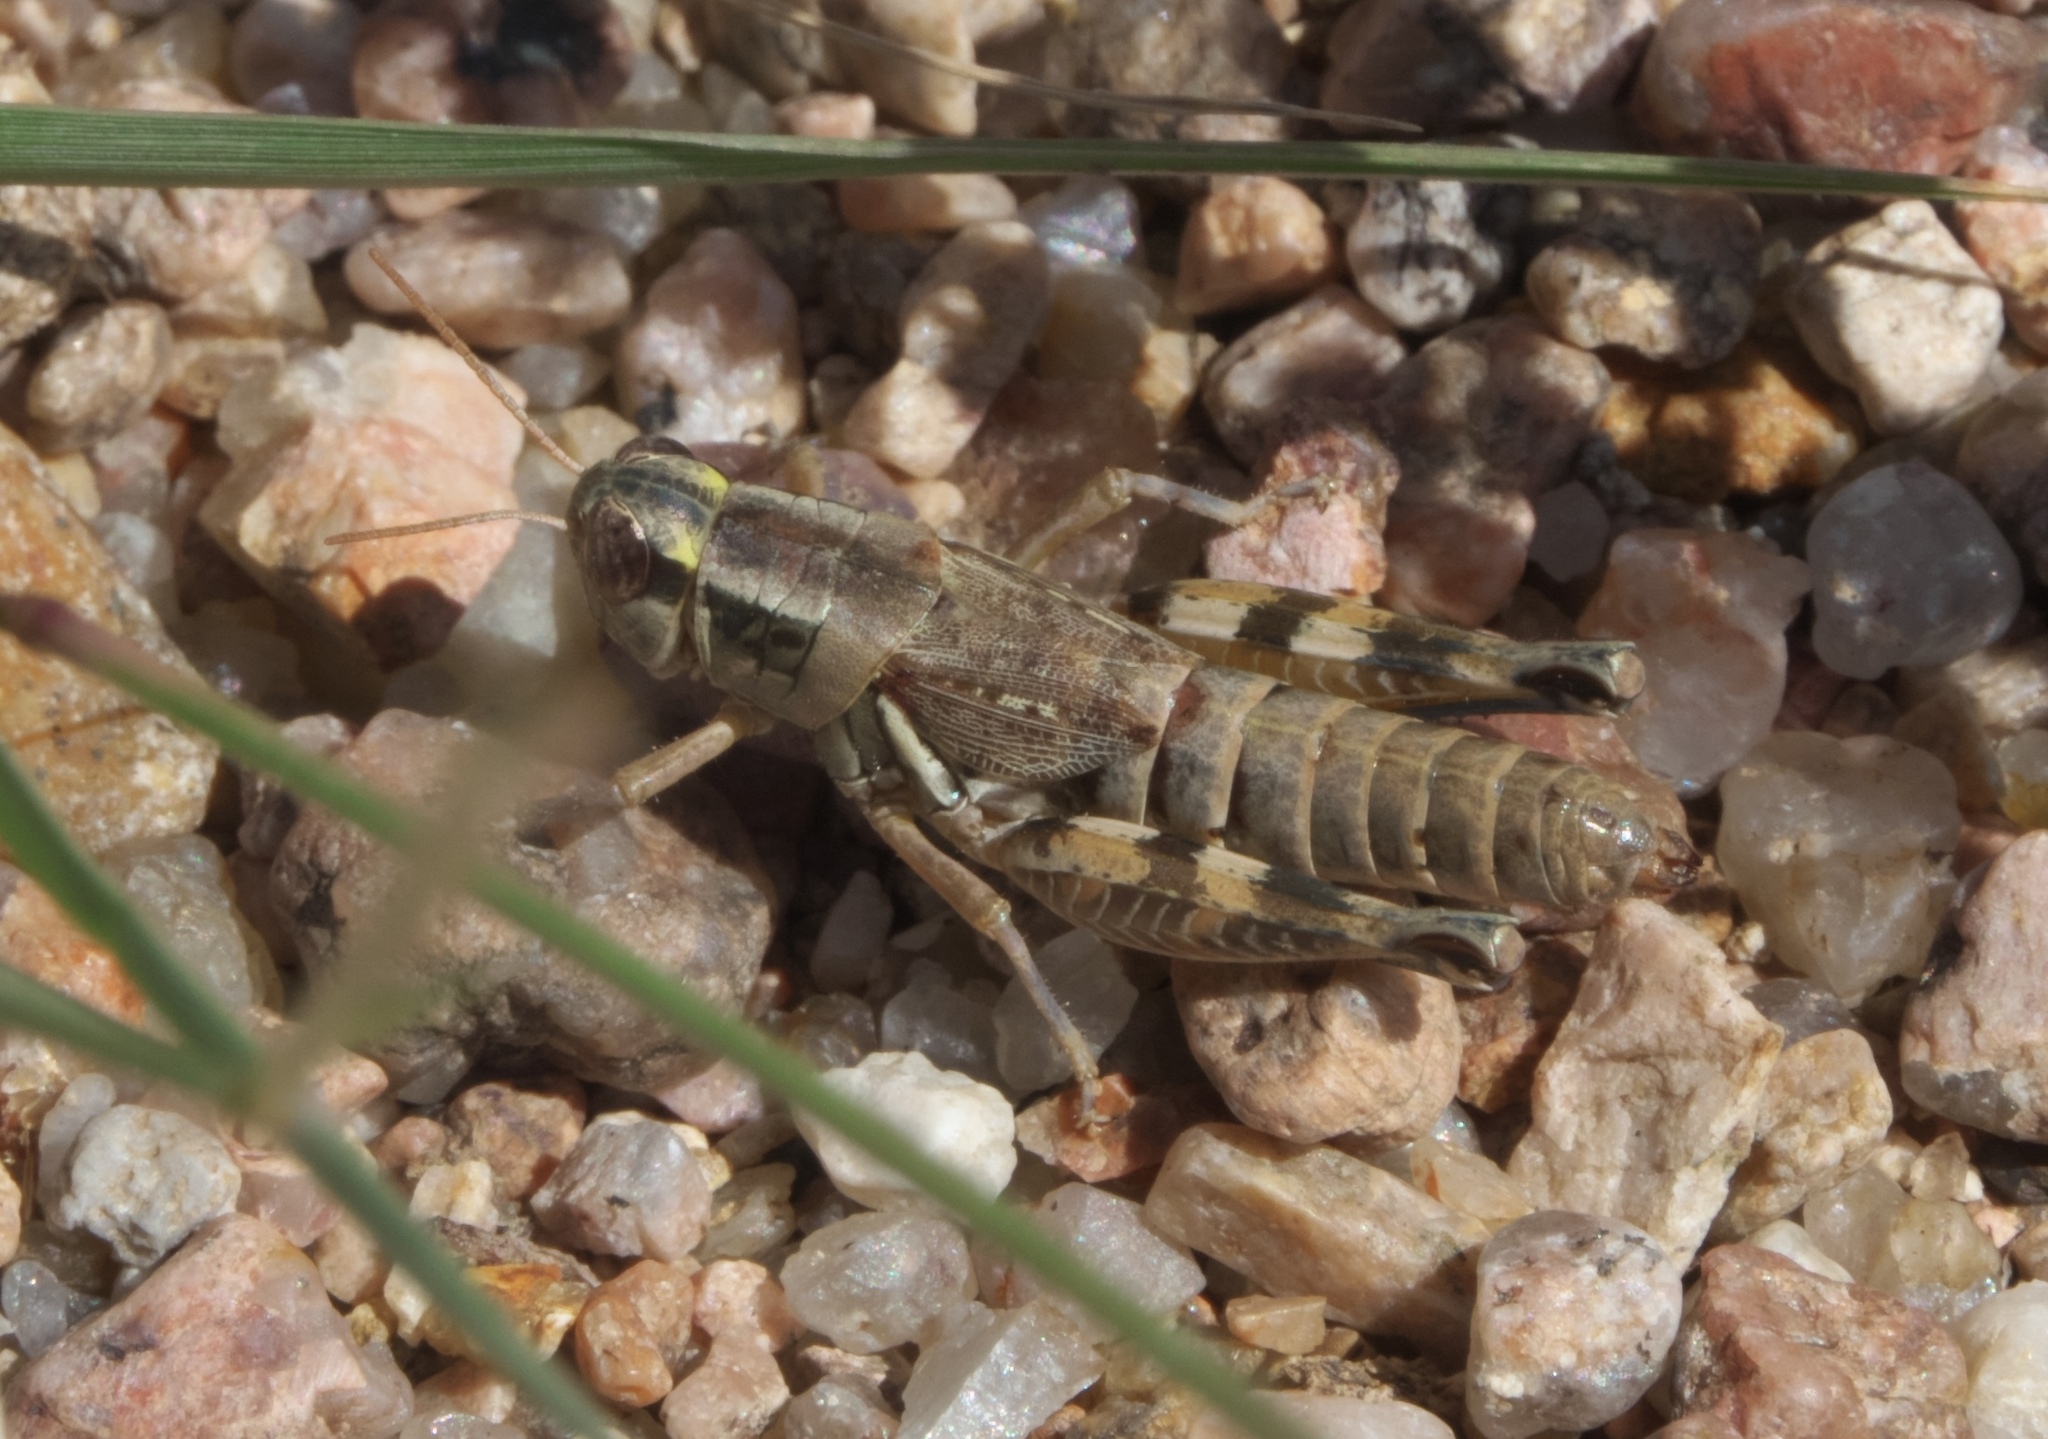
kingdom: Animalia
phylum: Arthropoda
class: Insecta
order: Orthoptera
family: Acrididae
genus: Melanoplus
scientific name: Melanoplus lakinus
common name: Lakin grasshopper
